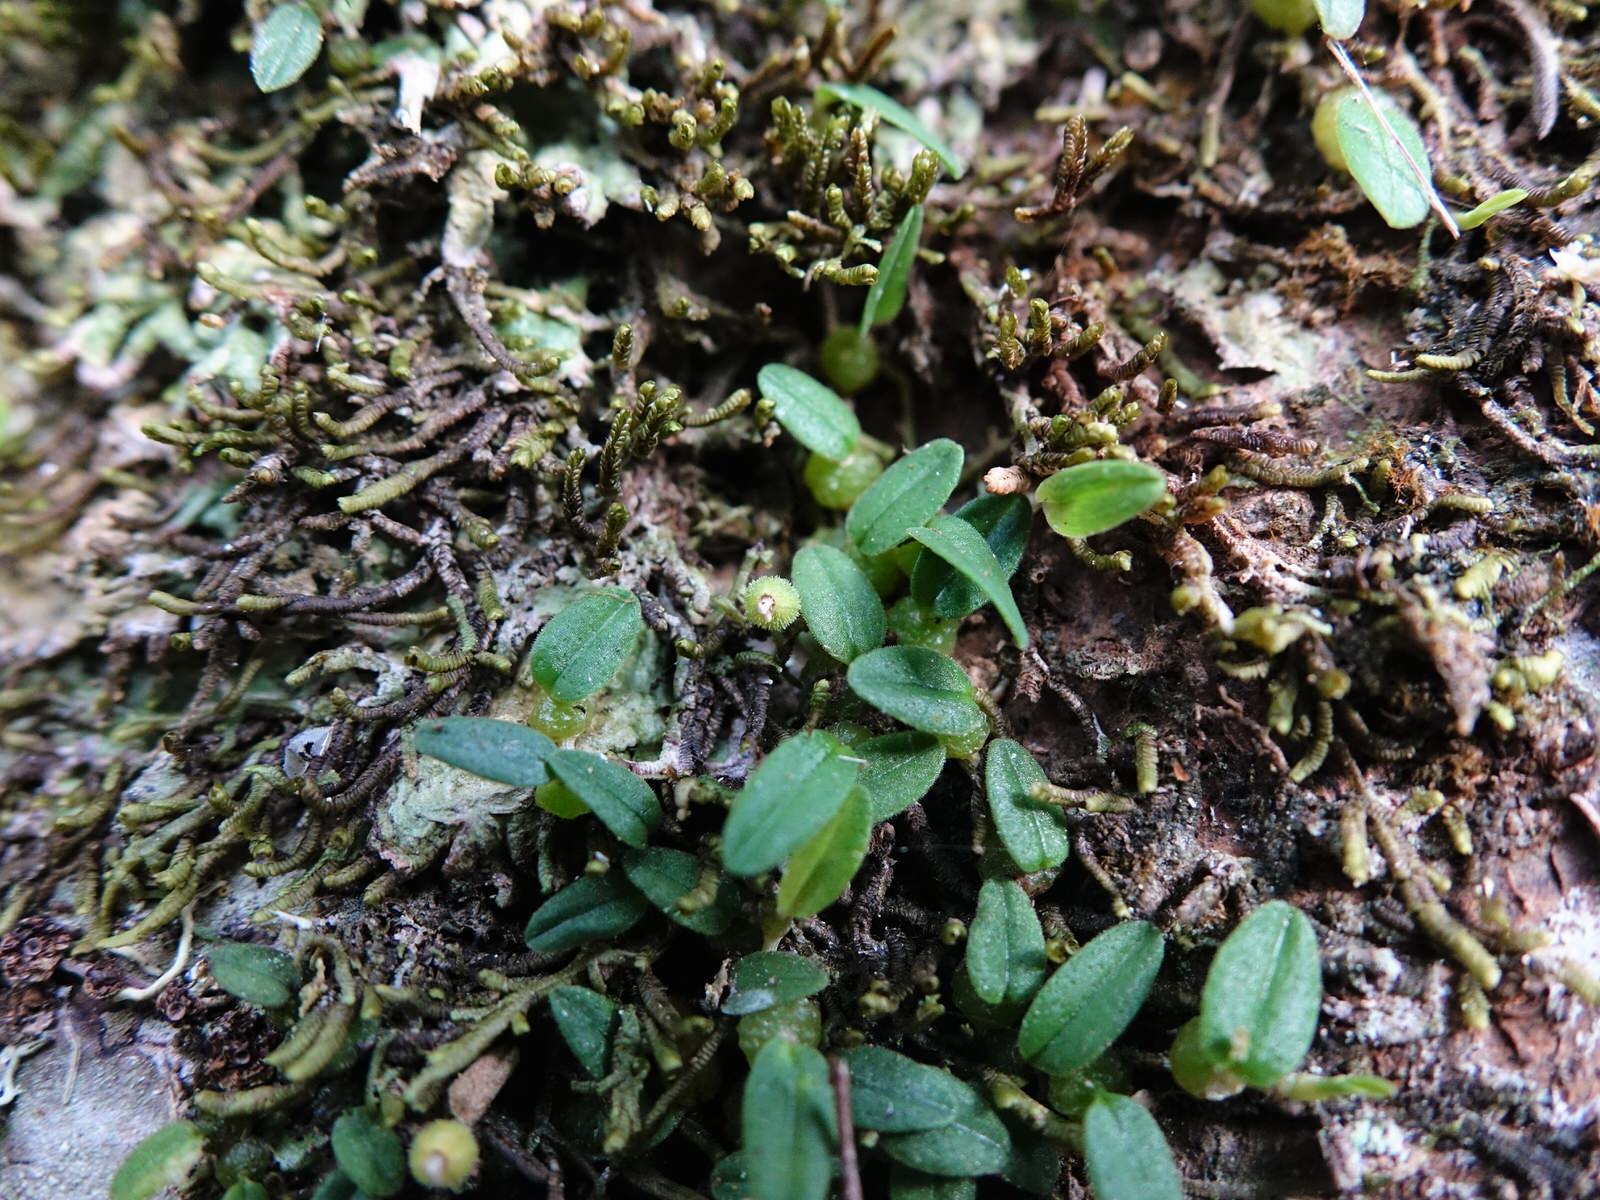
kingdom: Plantae
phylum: Tracheophyta
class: Liliopsida
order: Asparagales
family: Orchidaceae
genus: Bulbophyllum
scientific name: Bulbophyllum pygmaeum
